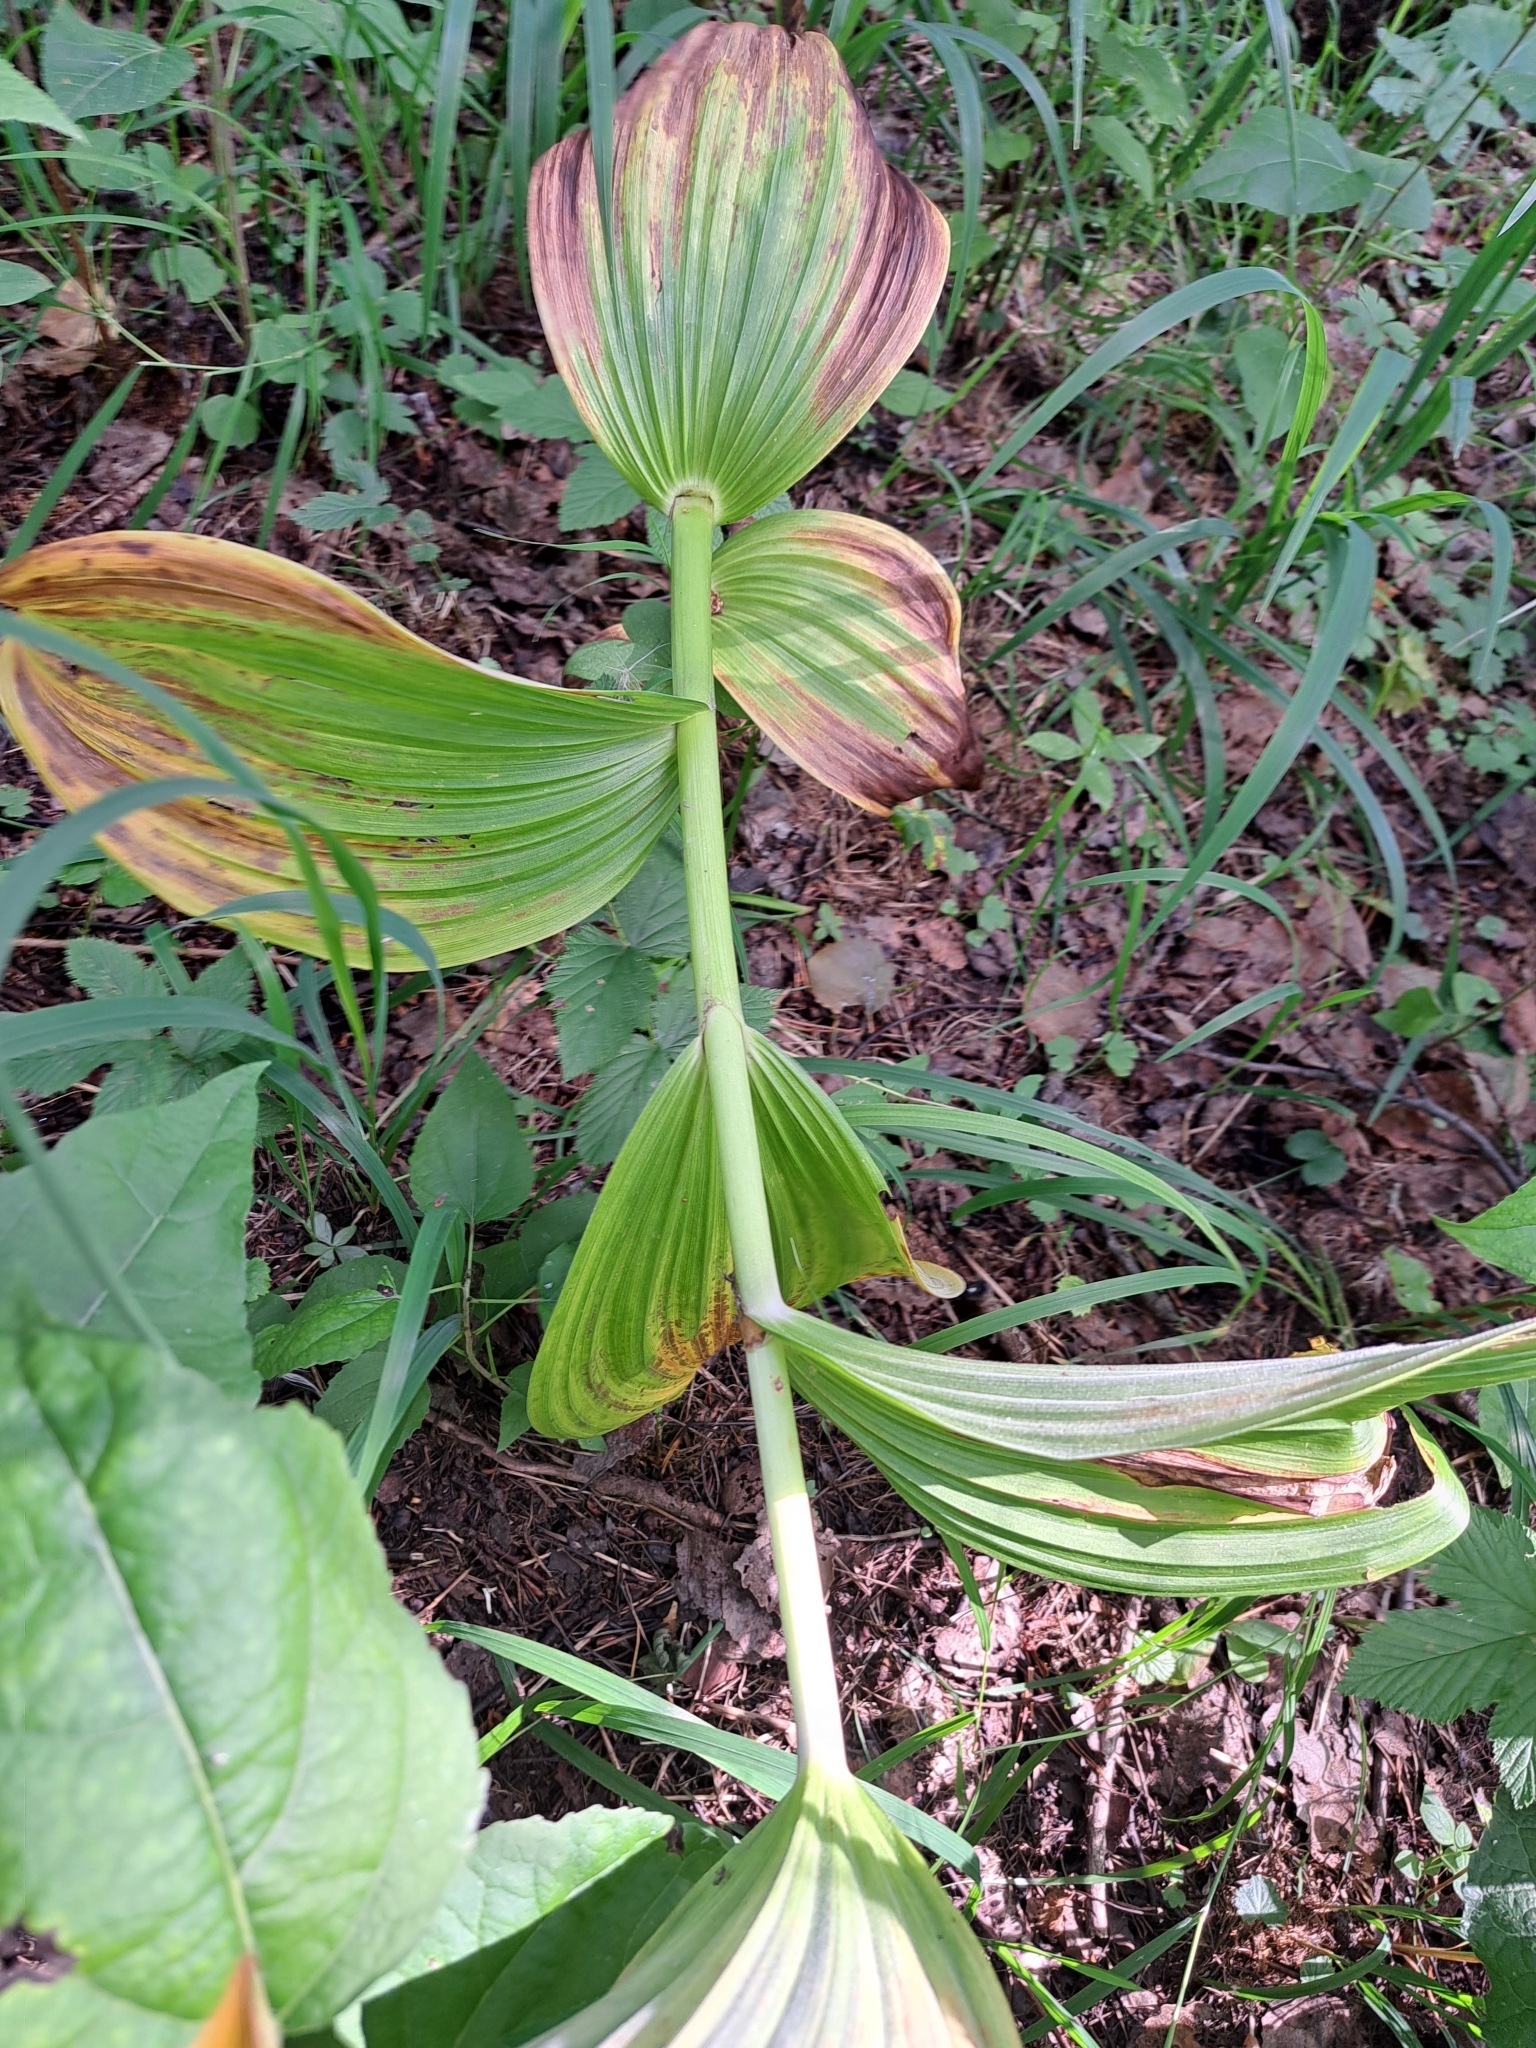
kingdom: Plantae
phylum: Tracheophyta
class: Liliopsida
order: Liliales
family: Melanthiaceae
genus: Veratrum
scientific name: Veratrum lobelianum
